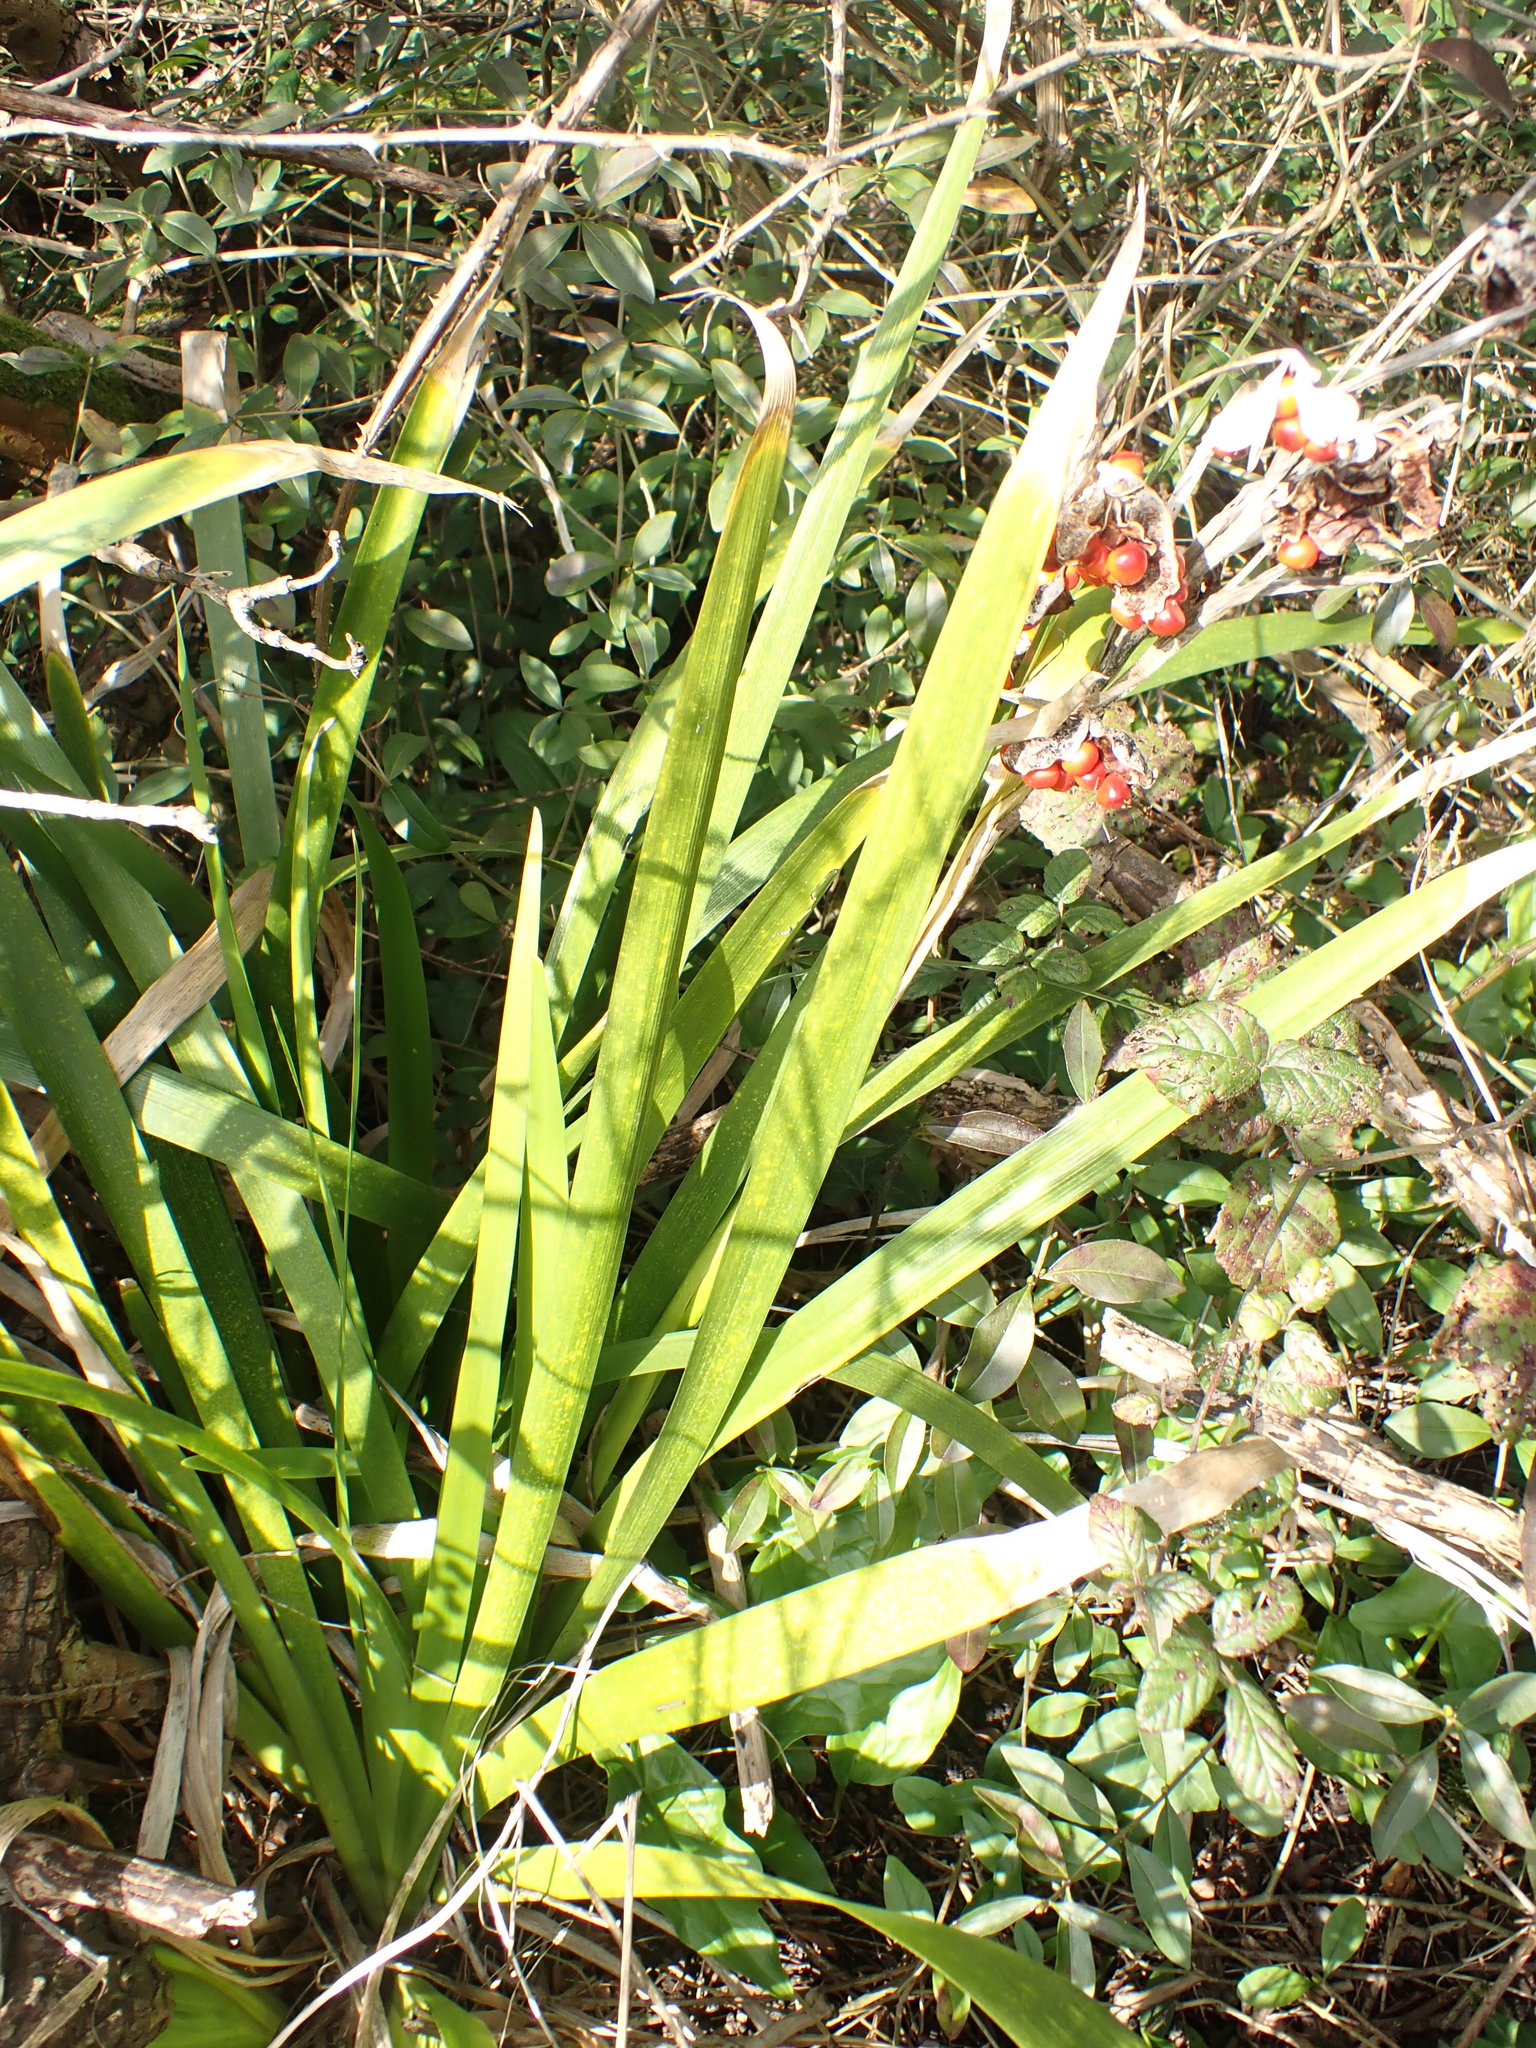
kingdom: Plantae
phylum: Tracheophyta
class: Liliopsida
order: Asparagales
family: Iridaceae
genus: Iris
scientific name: Iris foetidissima
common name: Stinking iris
